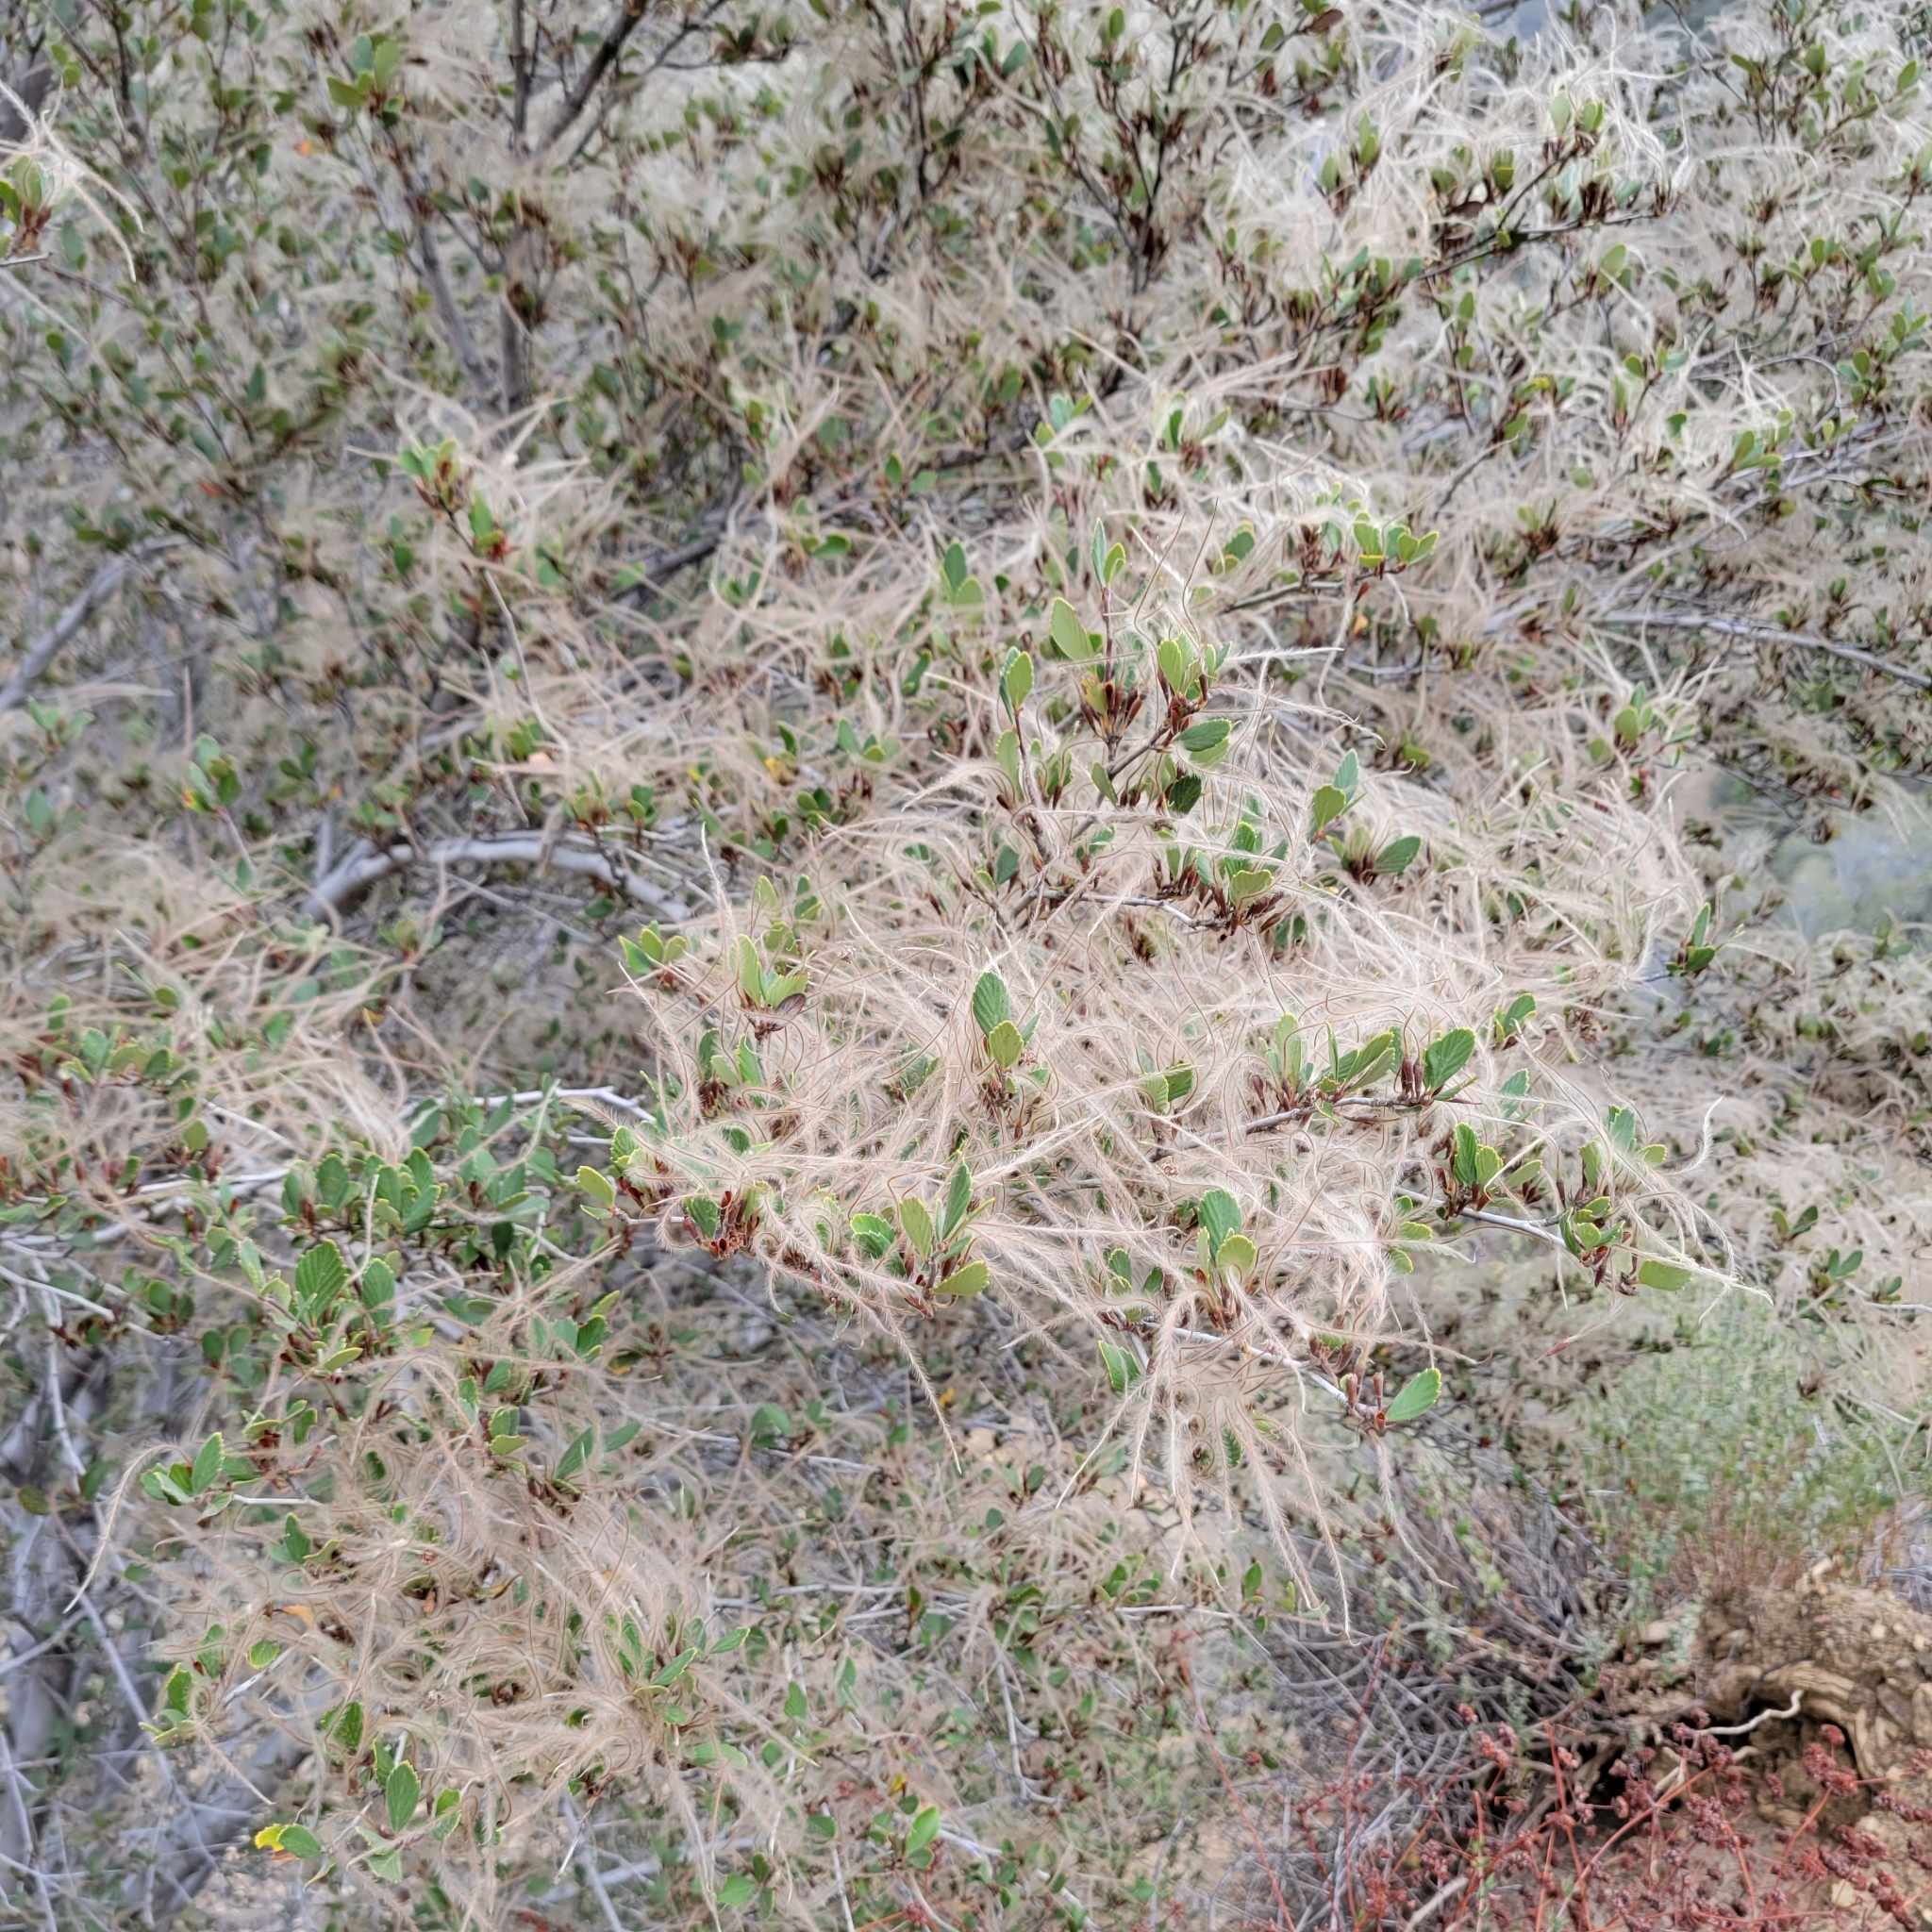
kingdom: Plantae
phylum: Tracheophyta
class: Magnoliopsida
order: Rosales
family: Rosaceae
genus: Cercocarpus
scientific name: Cercocarpus betuloides
